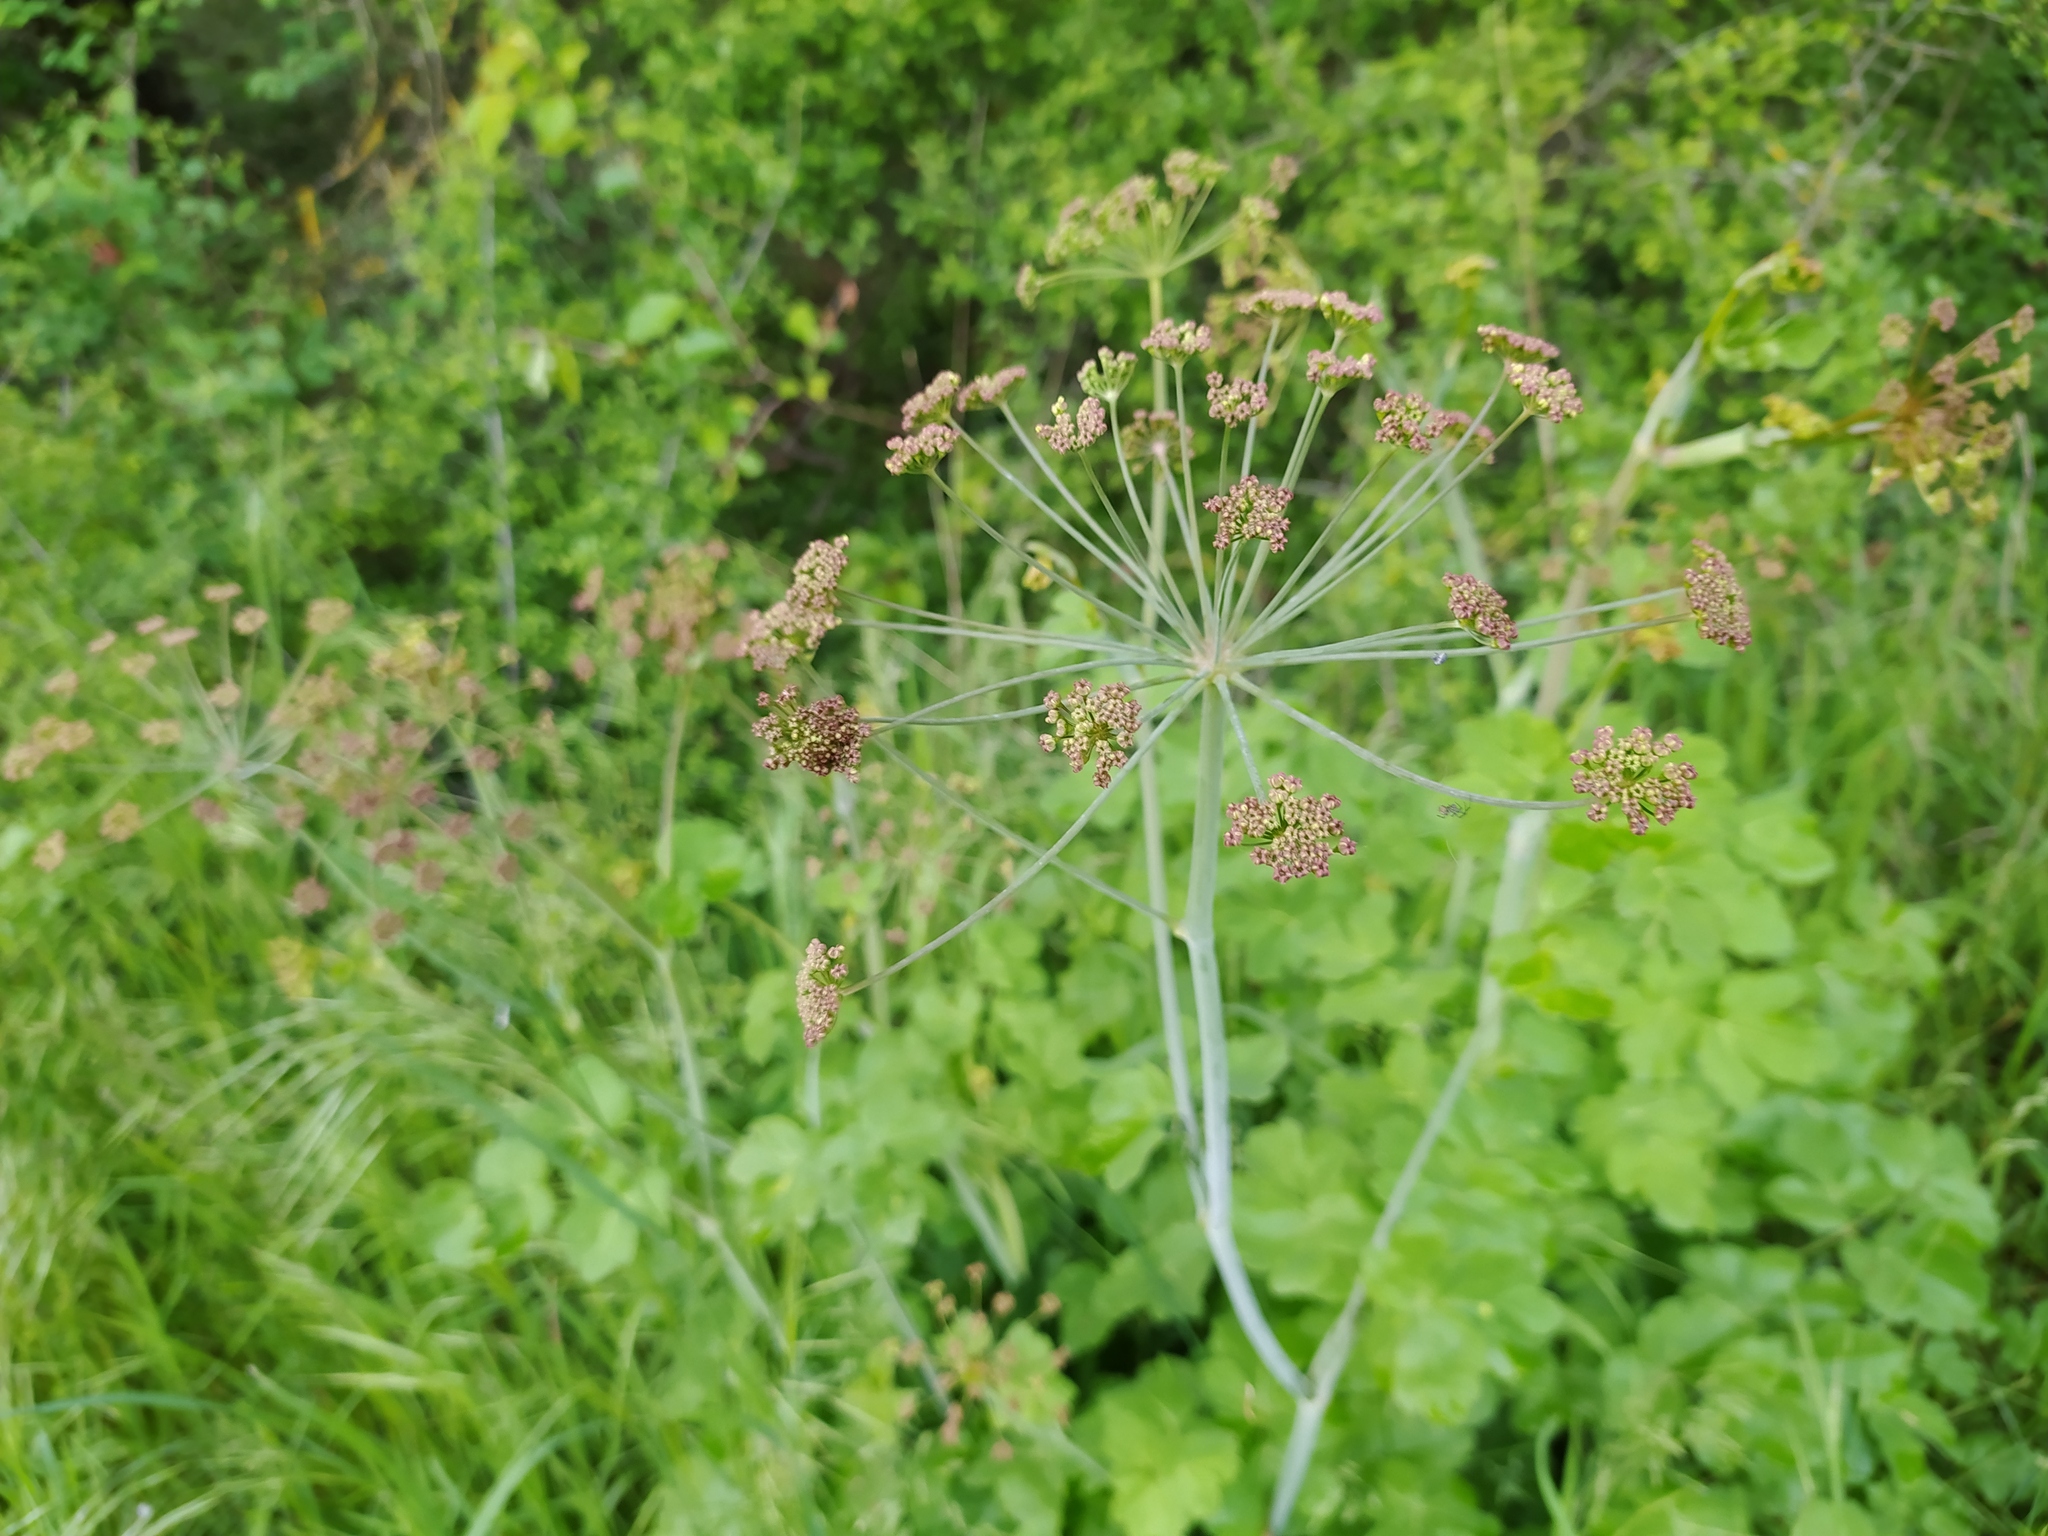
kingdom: Plantae
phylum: Tracheophyta
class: Magnoliopsida
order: Apiales
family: Apiaceae
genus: Laser
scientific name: Laser trilobum
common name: Laser
